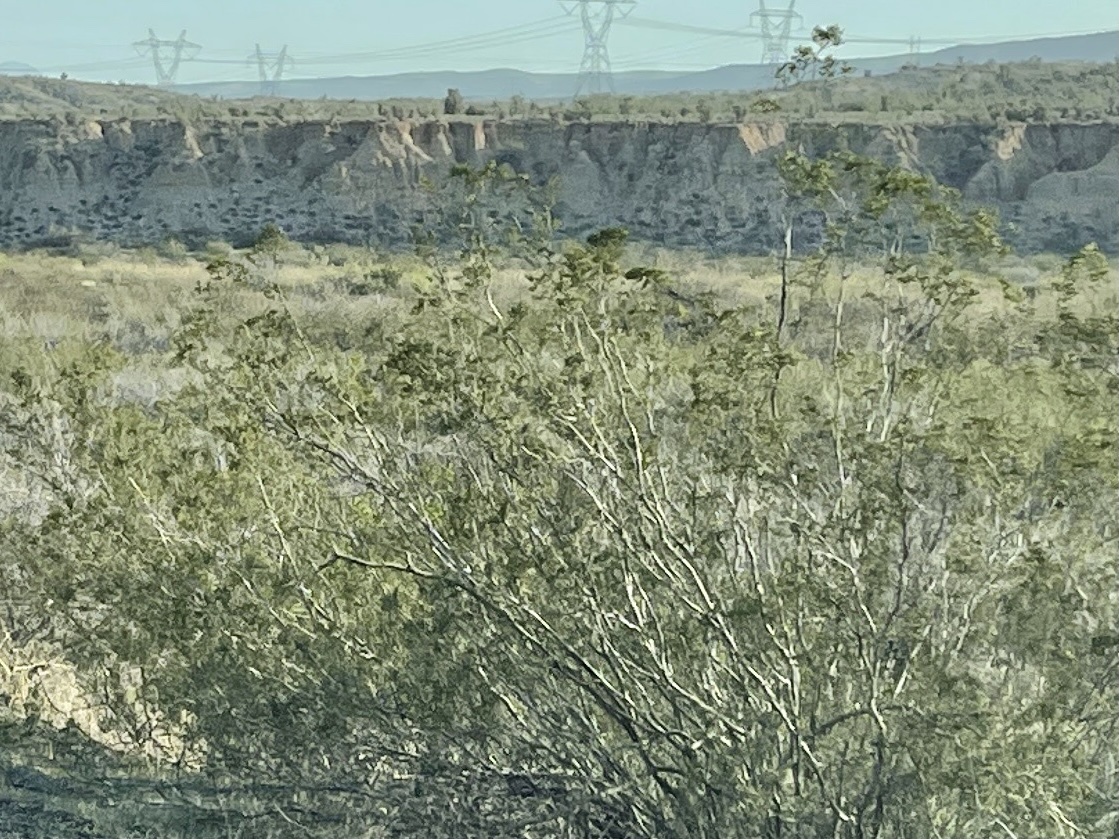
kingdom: Plantae
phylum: Tracheophyta
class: Magnoliopsida
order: Zygophyllales
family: Zygophyllaceae
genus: Larrea
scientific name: Larrea tridentata
